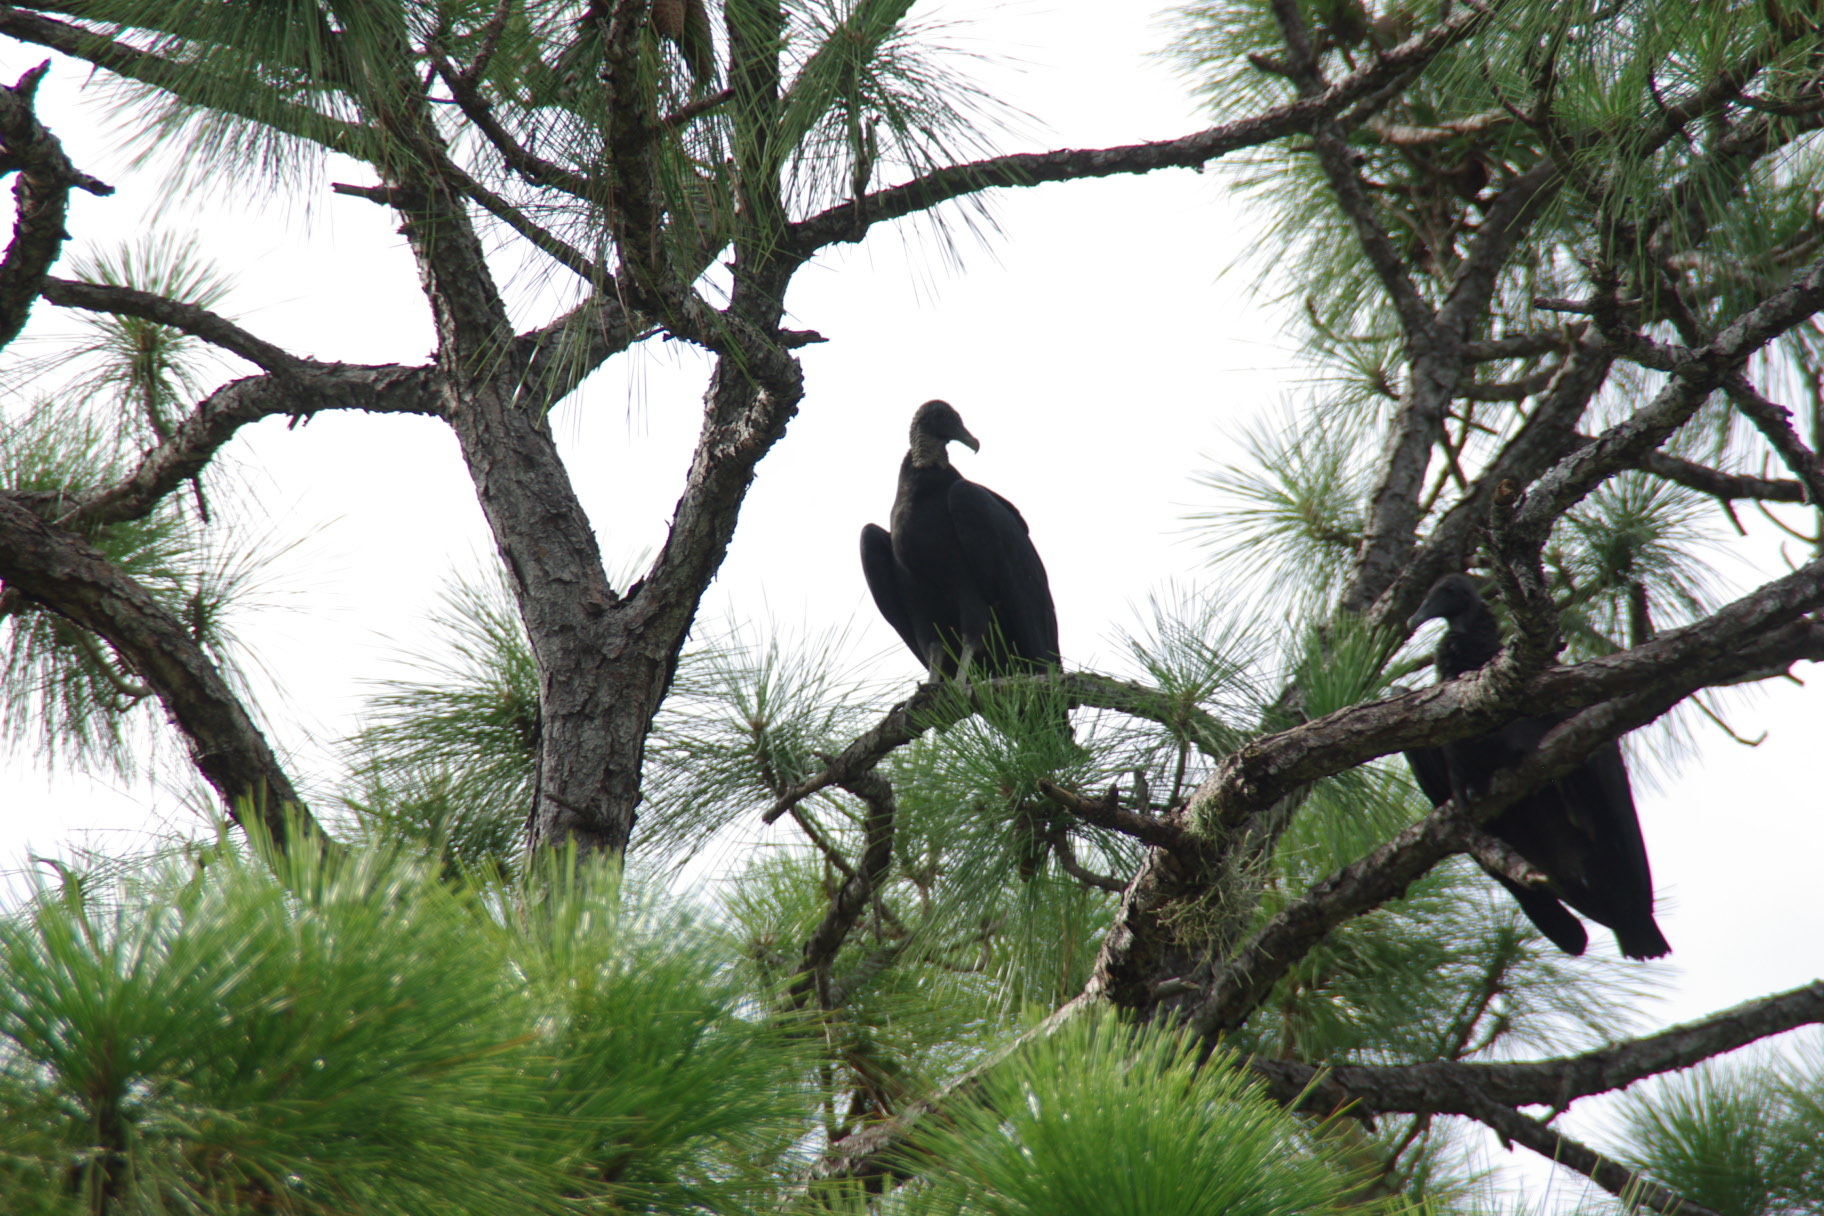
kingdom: Animalia
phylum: Chordata
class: Aves
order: Accipitriformes
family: Cathartidae
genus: Coragyps
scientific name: Coragyps atratus
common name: Black vulture
